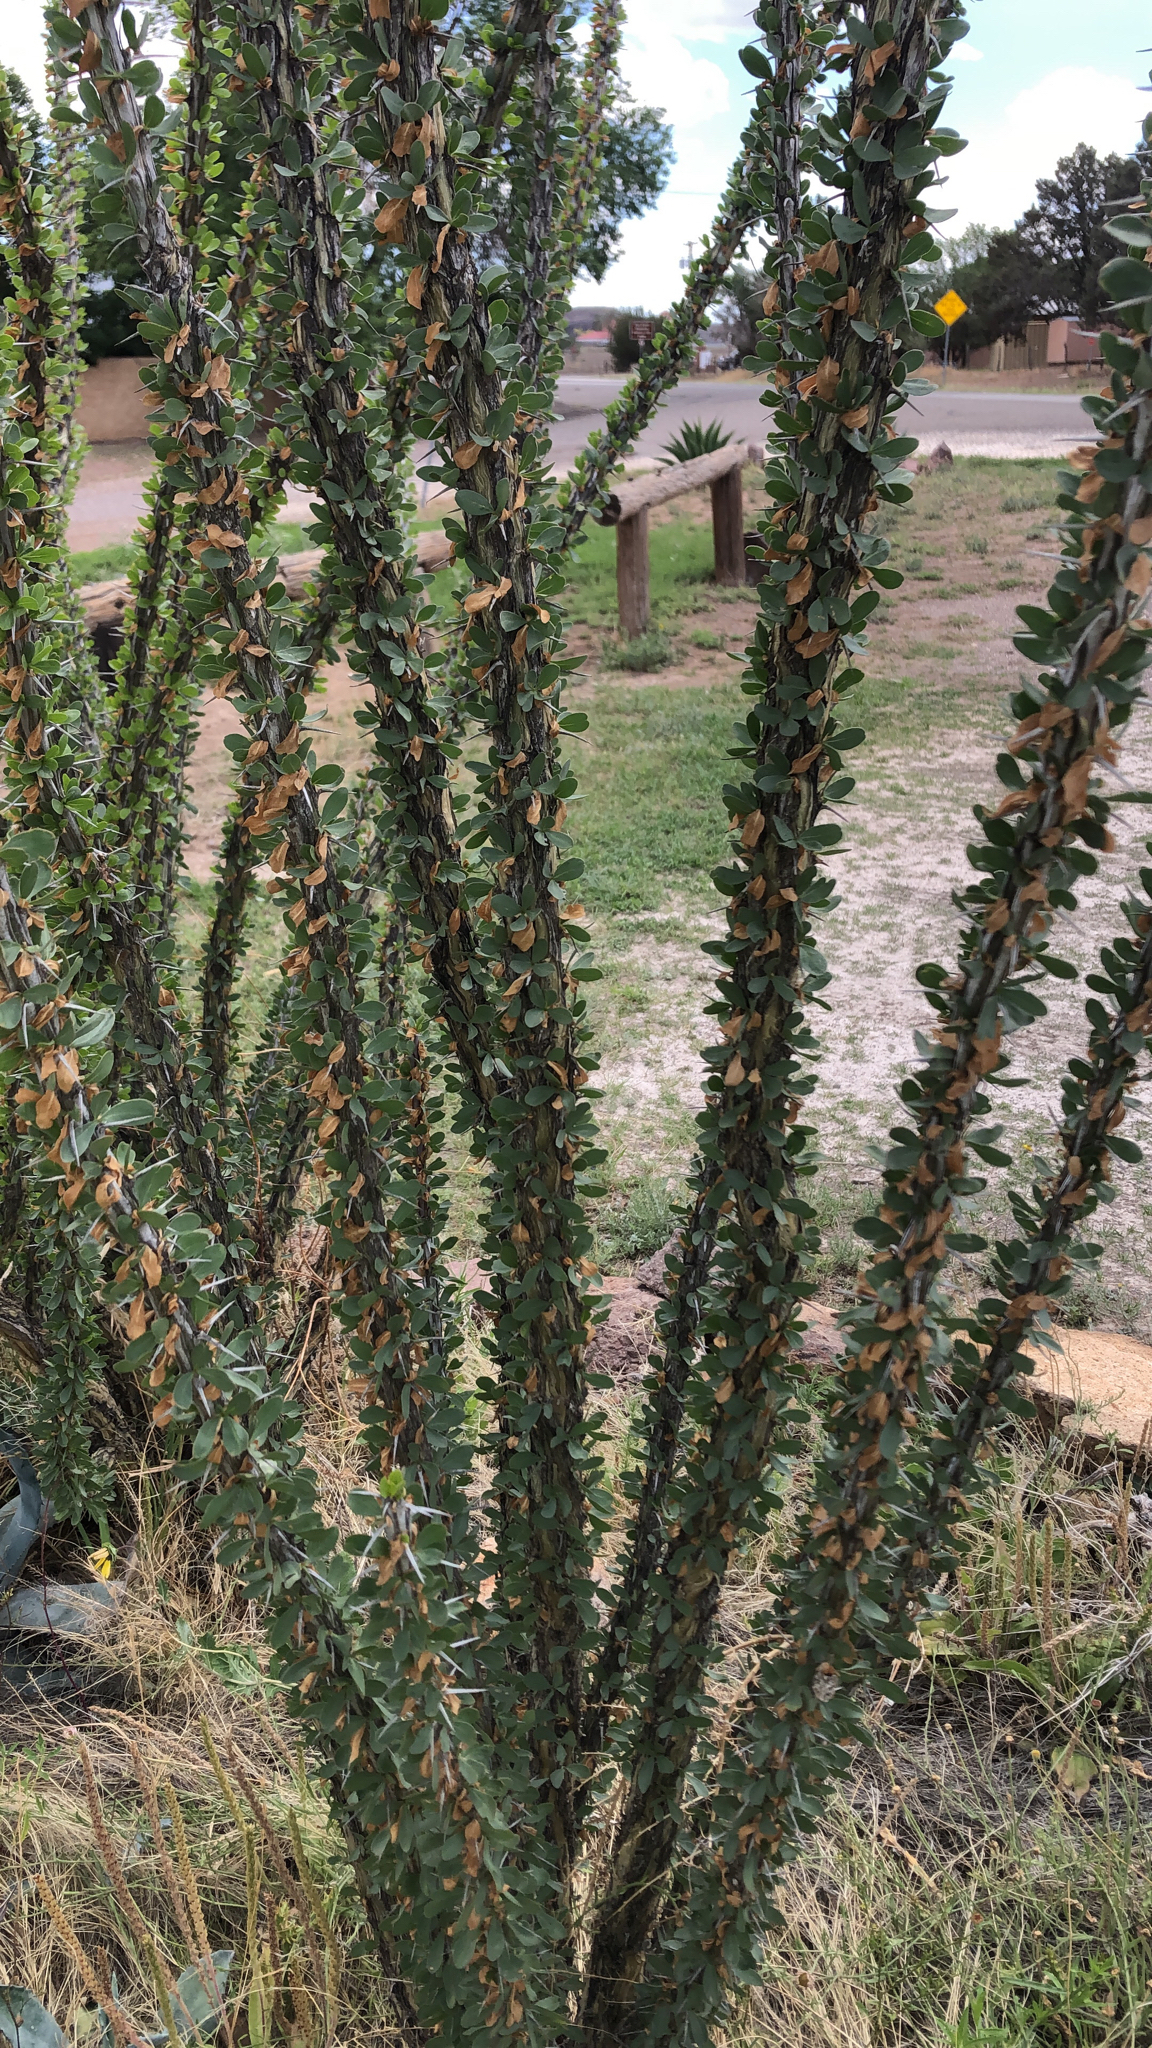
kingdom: Plantae
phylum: Tracheophyta
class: Magnoliopsida
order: Ericales
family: Fouquieriaceae
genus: Fouquieria
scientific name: Fouquieria splendens
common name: Vine-cactus
